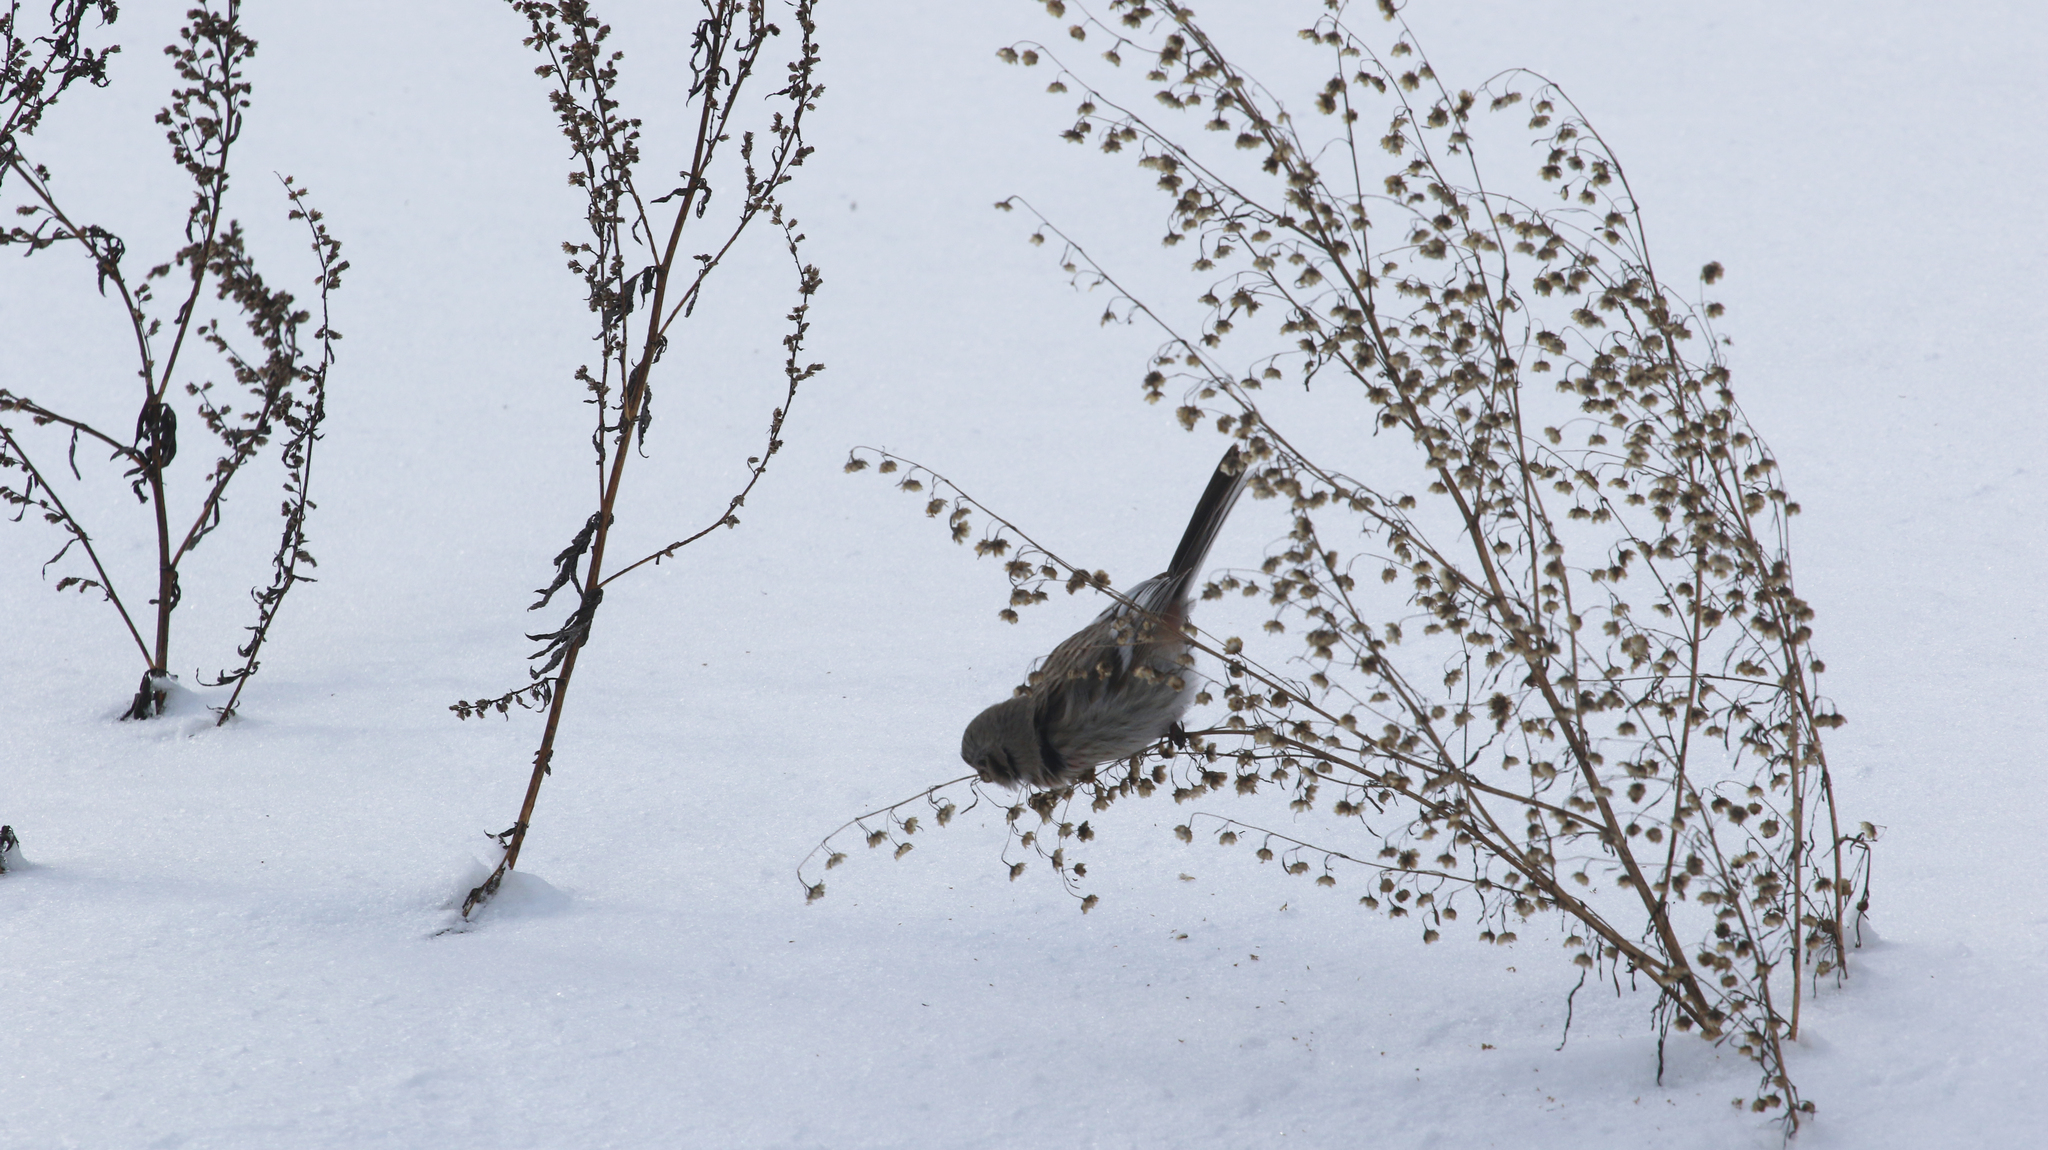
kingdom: Animalia
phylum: Chordata
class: Aves
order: Passeriformes
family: Fringillidae
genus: Carpodacus
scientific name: Carpodacus sibiricus
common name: Long-tailed rosefinch
